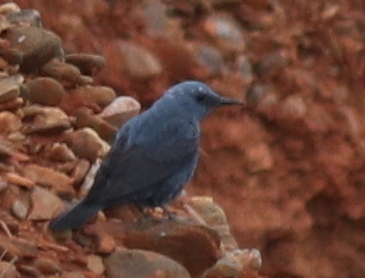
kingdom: Animalia
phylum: Chordata
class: Aves
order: Passeriformes
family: Muscicapidae
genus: Monticola
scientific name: Monticola solitarius
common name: Blue rock thrush
